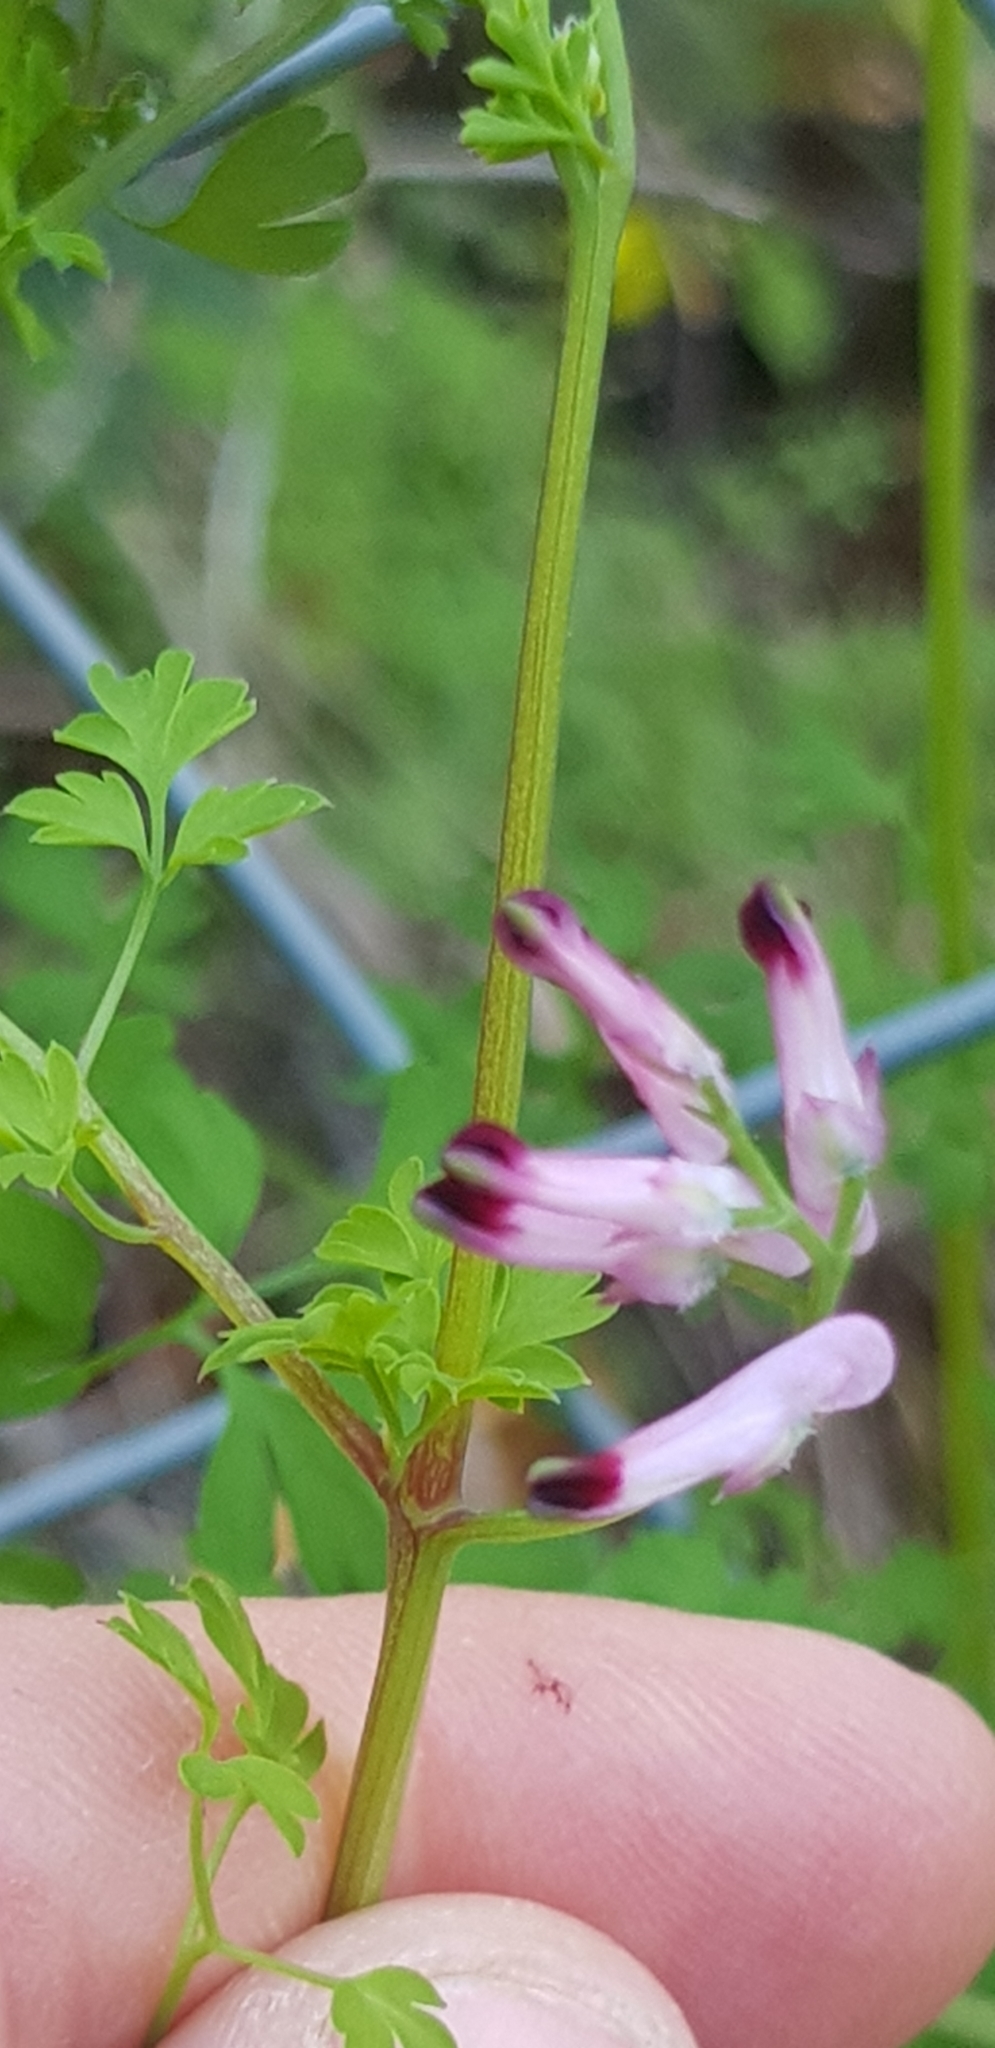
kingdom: Plantae
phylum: Tracheophyta
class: Magnoliopsida
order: Ranunculales
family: Papaveraceae
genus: Fumaria
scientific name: Fumaria muralis
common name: Common ramping-fumitory
